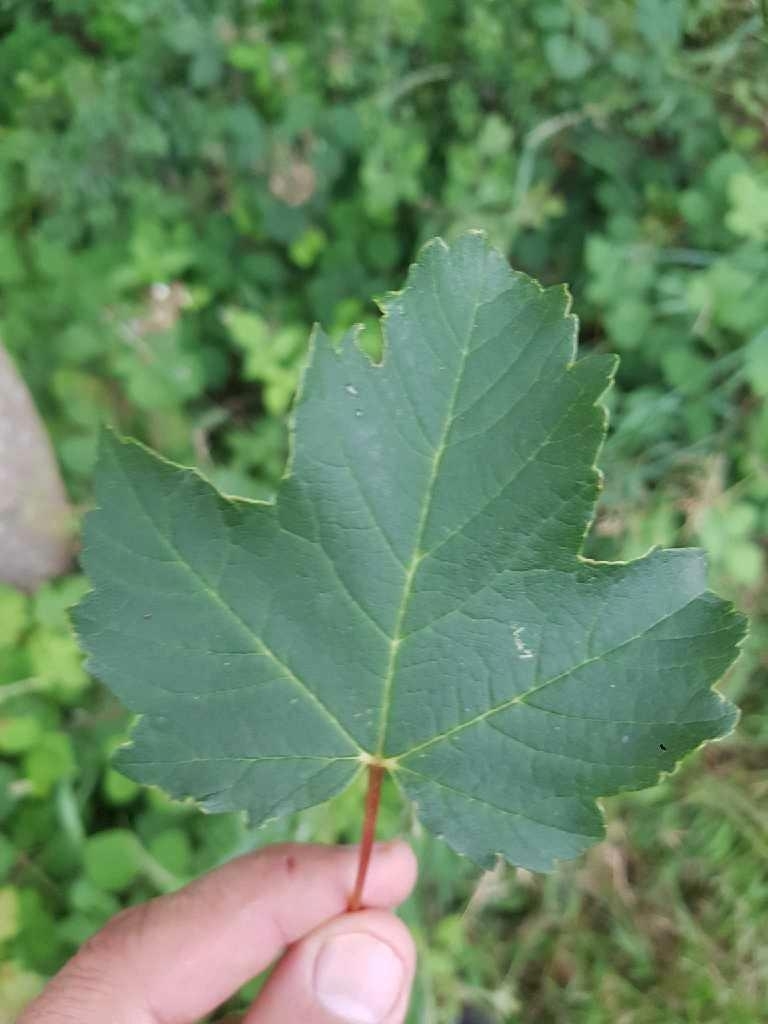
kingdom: Plantae
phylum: Tracheophyta
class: Magnoliopsida
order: Sapindales
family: Sapindaceae
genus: Acer
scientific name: Acer pseudoplatanus
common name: Sycamore
